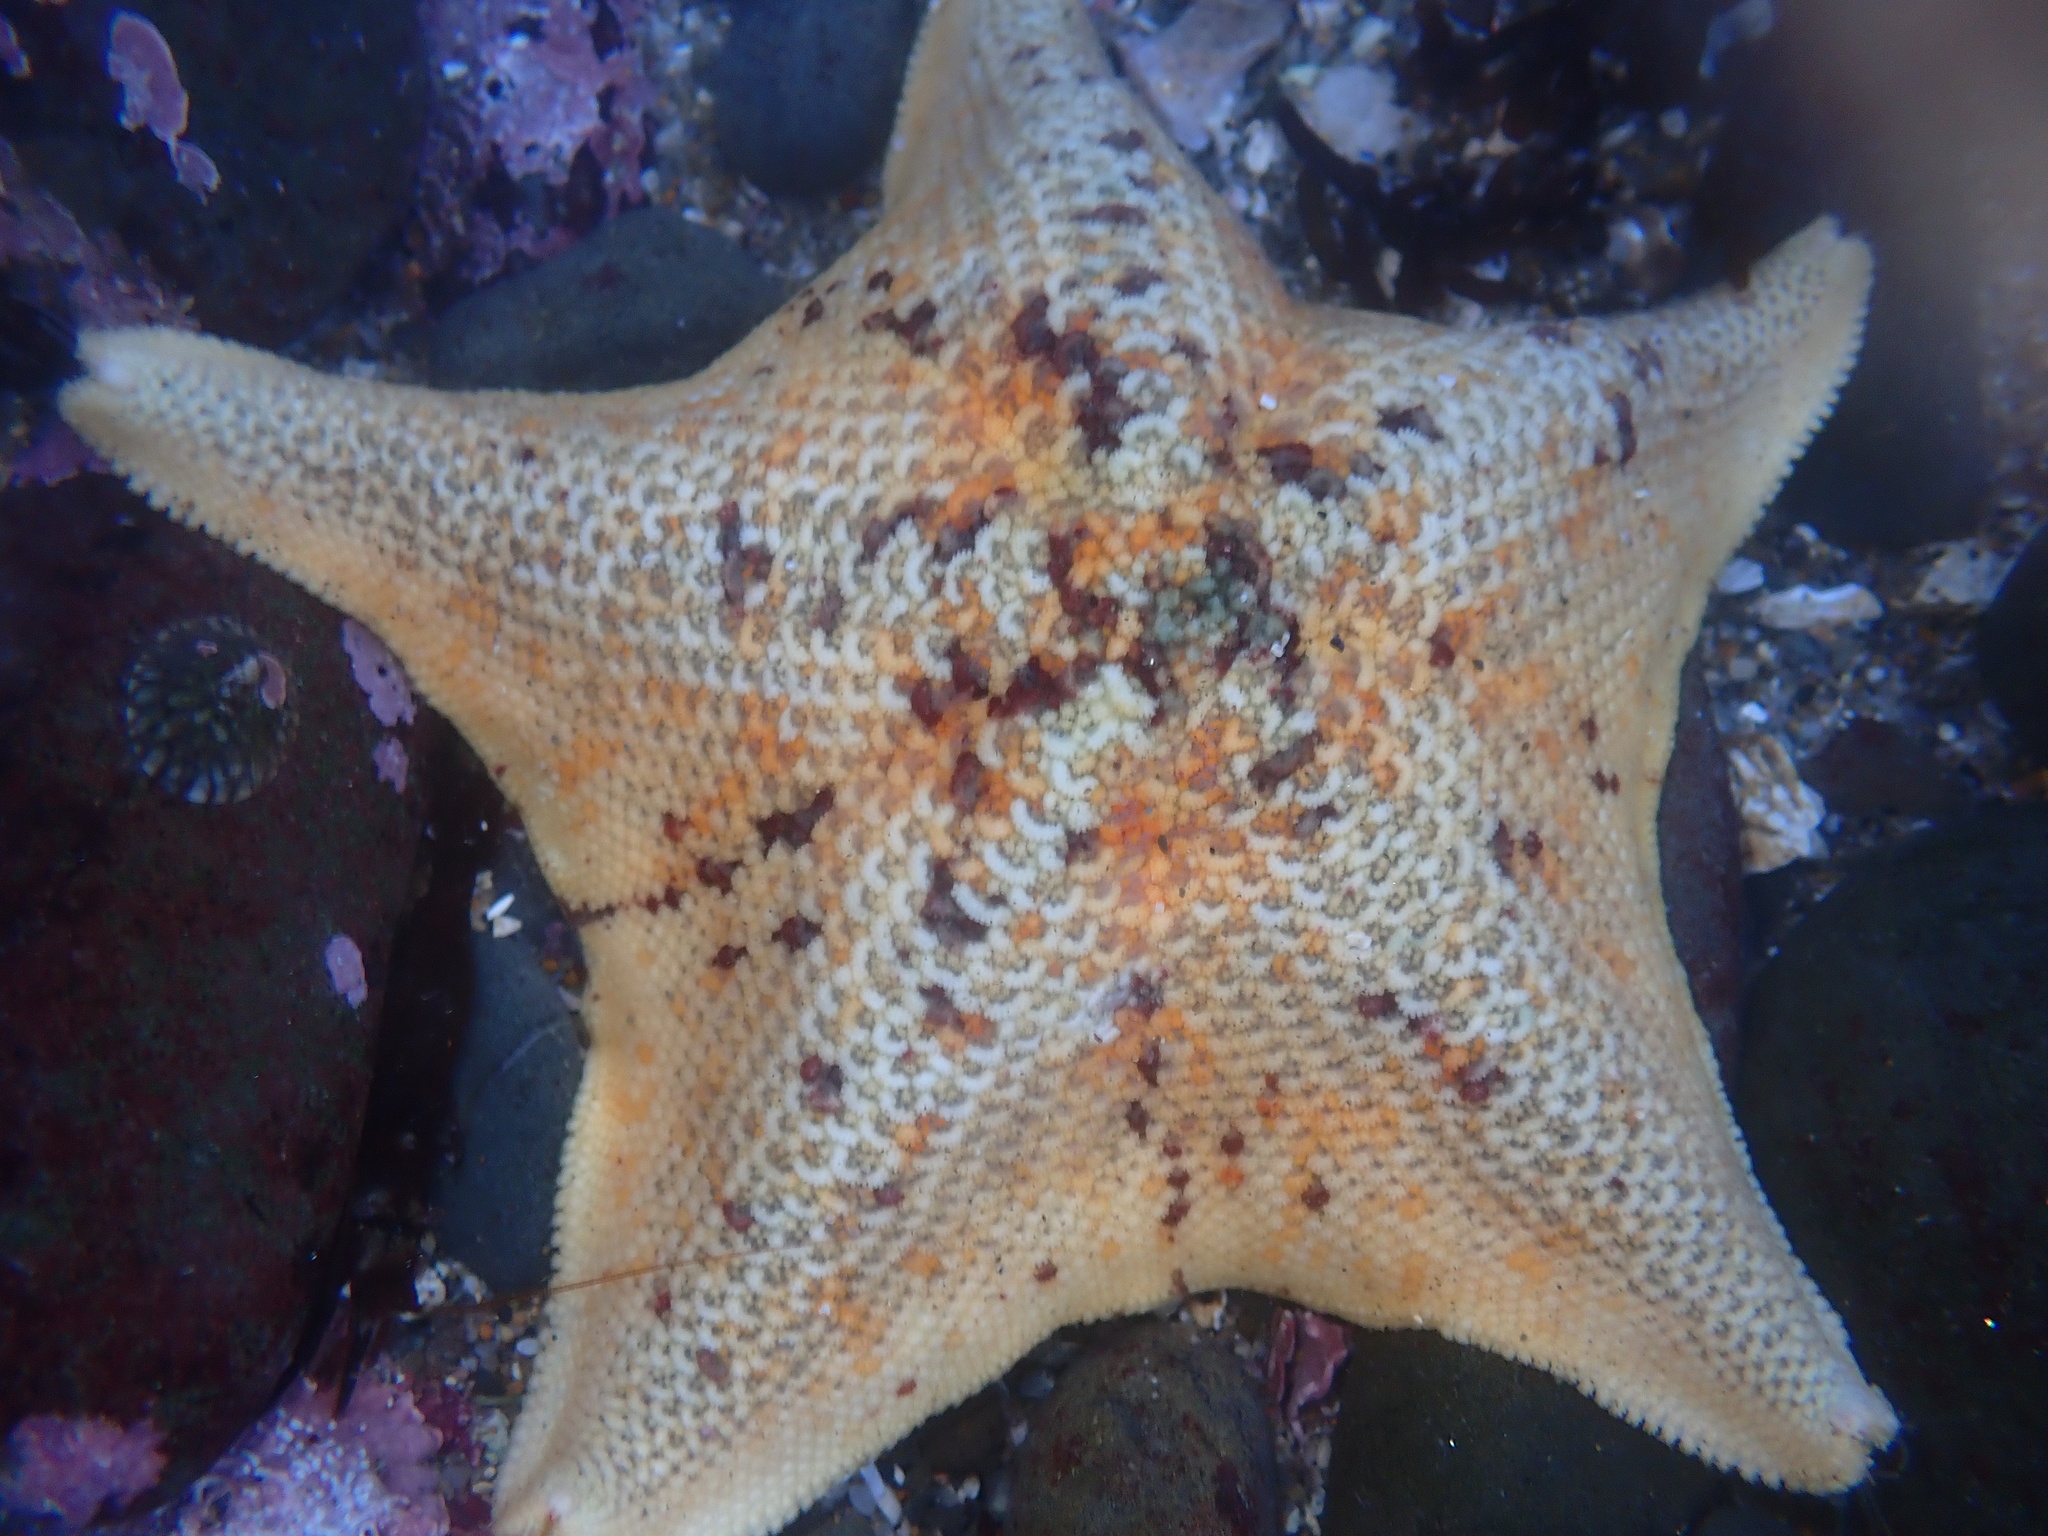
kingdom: Animalia
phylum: Echinodermata
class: Asteroidea
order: Valvatida
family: Asterinidae
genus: Patiria
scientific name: Patiria miniata
